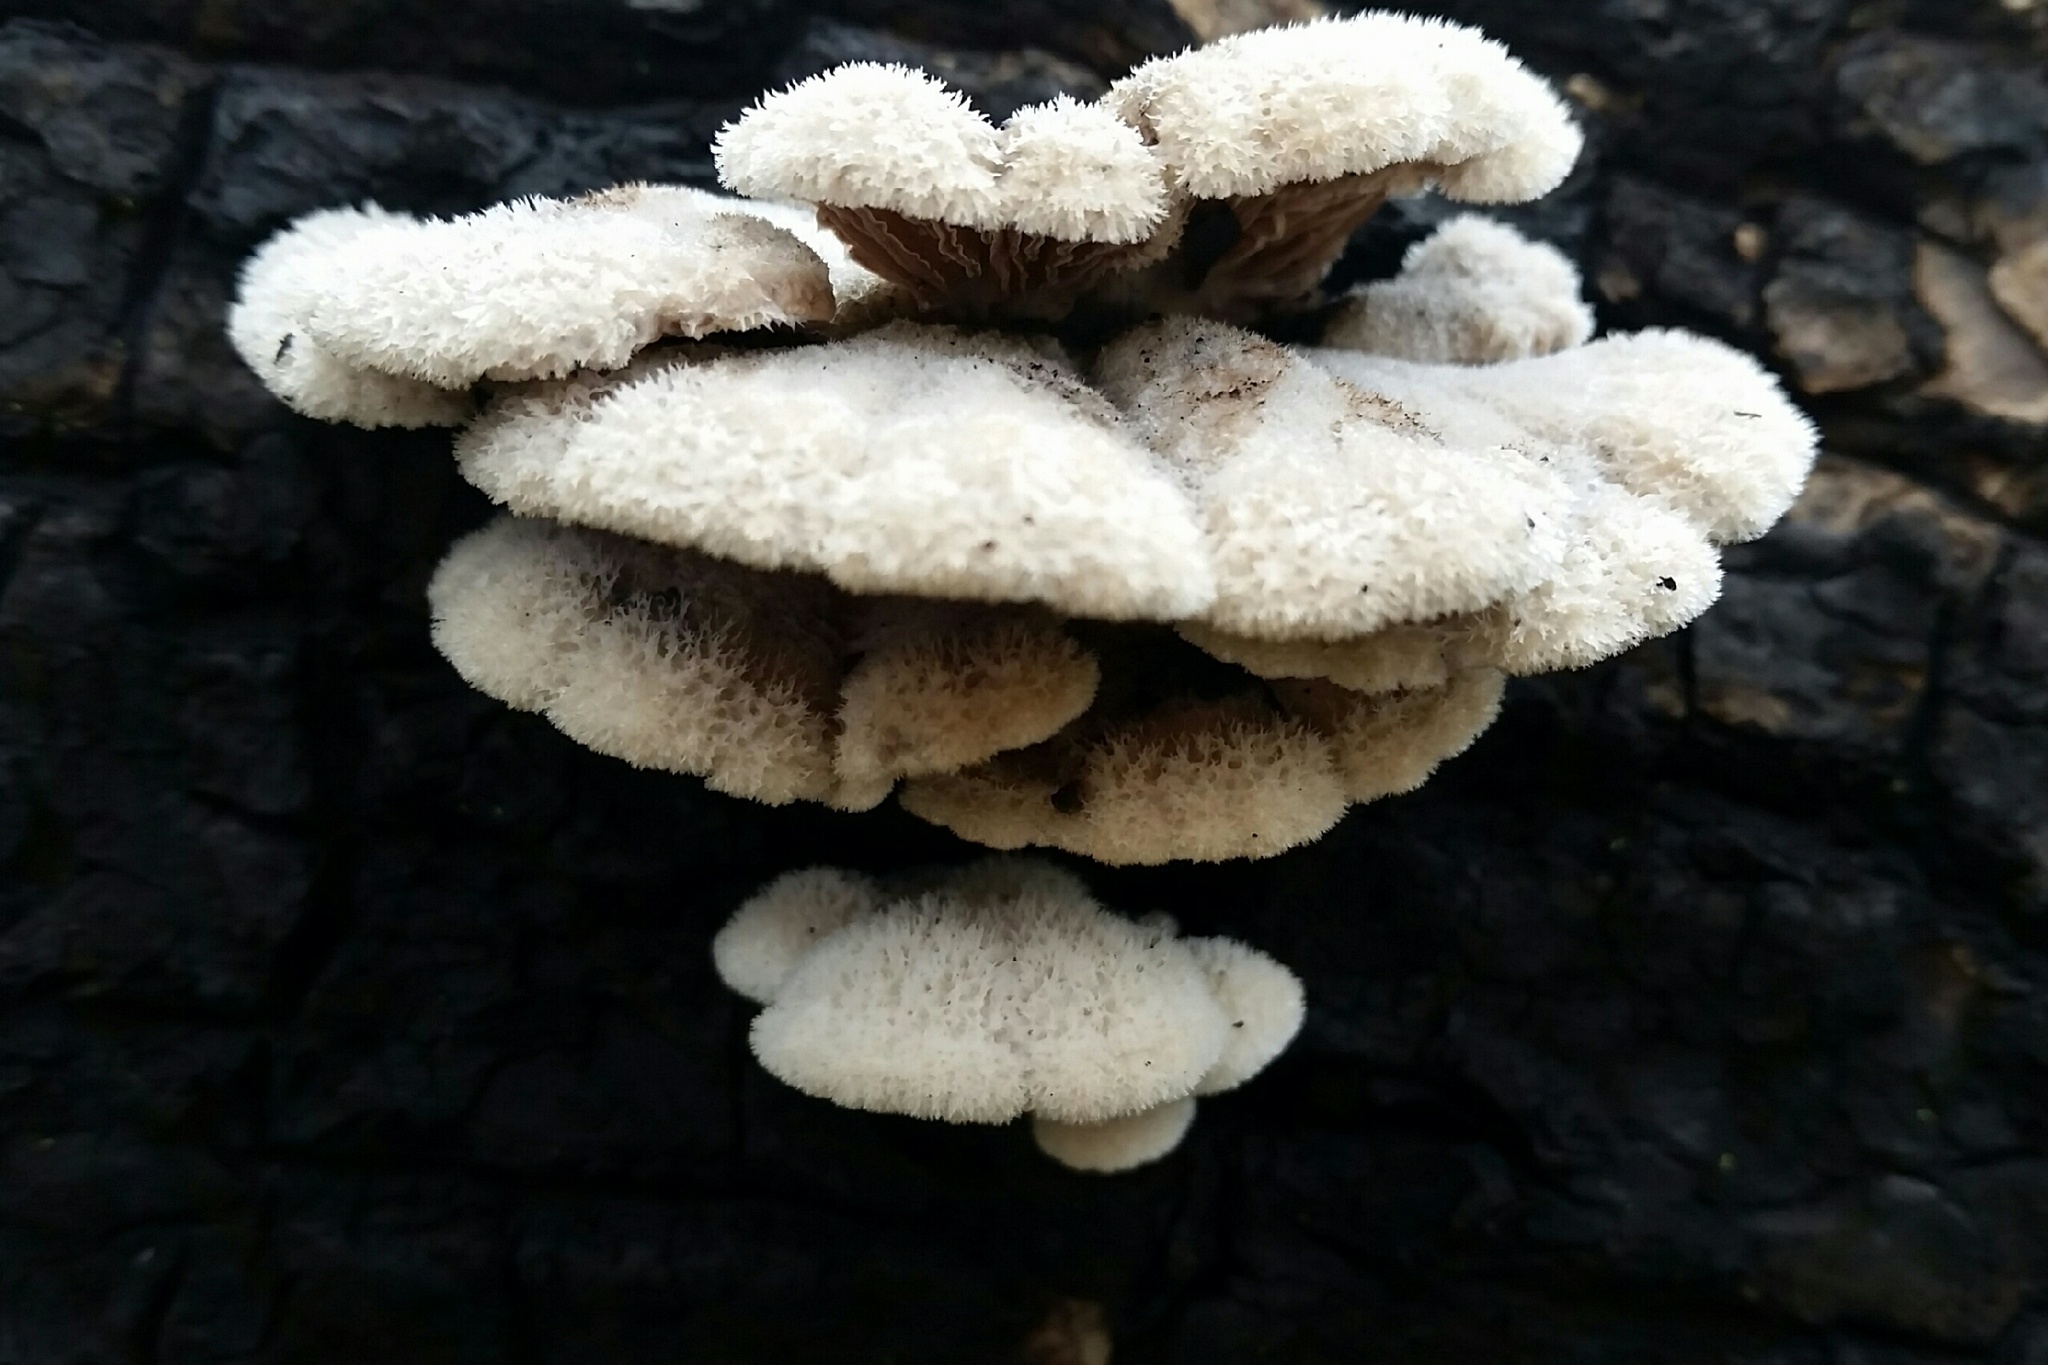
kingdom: Fungi
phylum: Basidiomycota
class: Agaricomycetes
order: Agaricales
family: Schizophyllaceae
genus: Schizophyllum
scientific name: Schizophyllum commune
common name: Common porecrust
